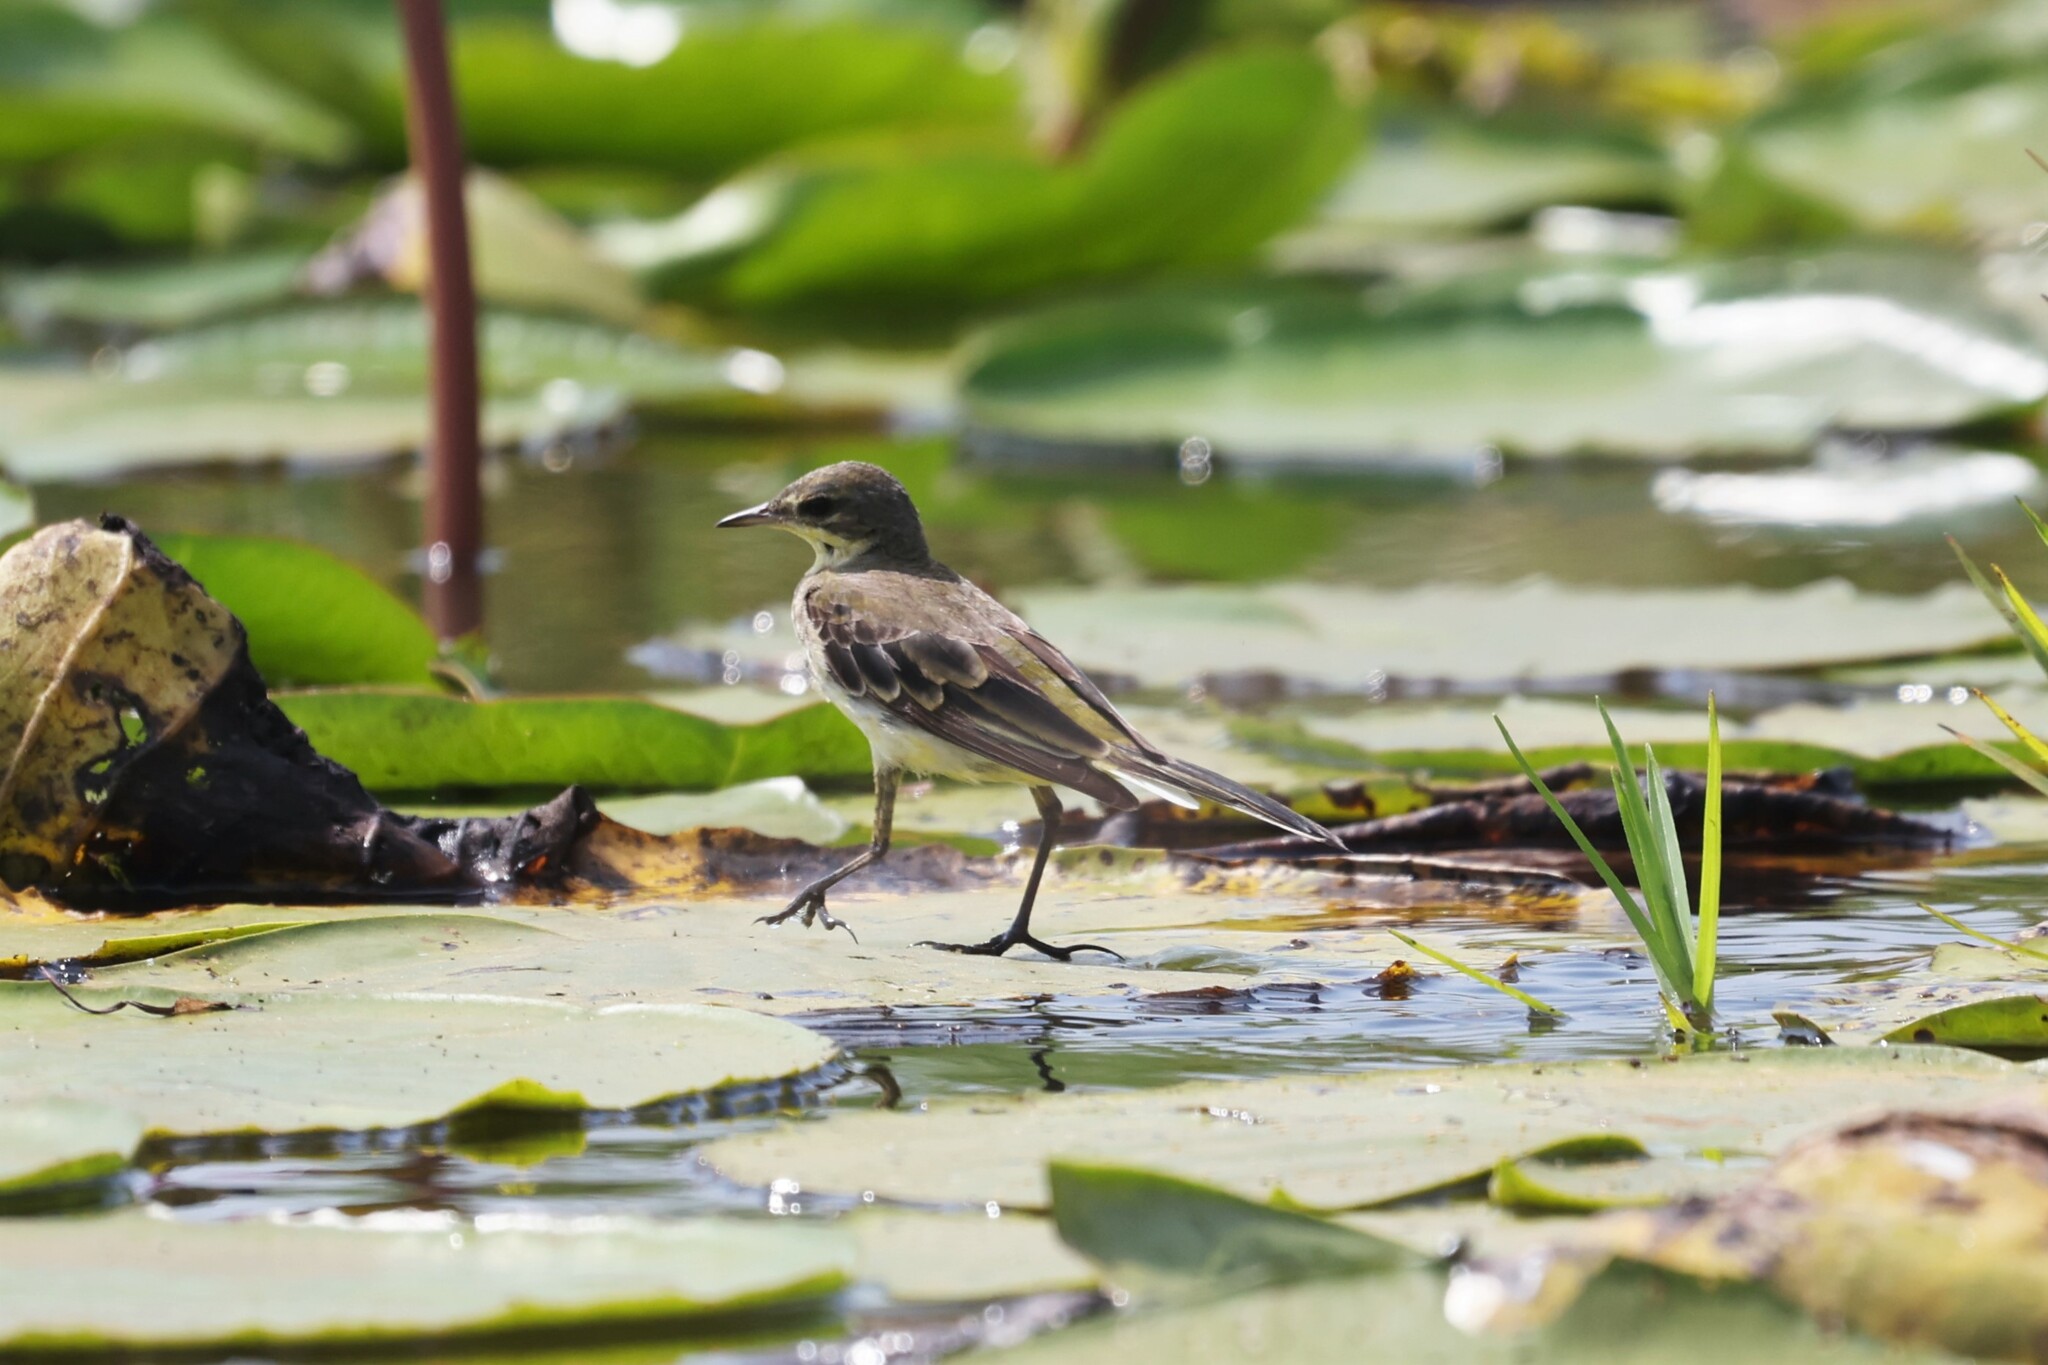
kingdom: Animalia
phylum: Chordata
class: Aves
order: Passeriformes
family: Motacillidae
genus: Motacilla
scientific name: Motacilla flava
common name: Western yellow wagtail
